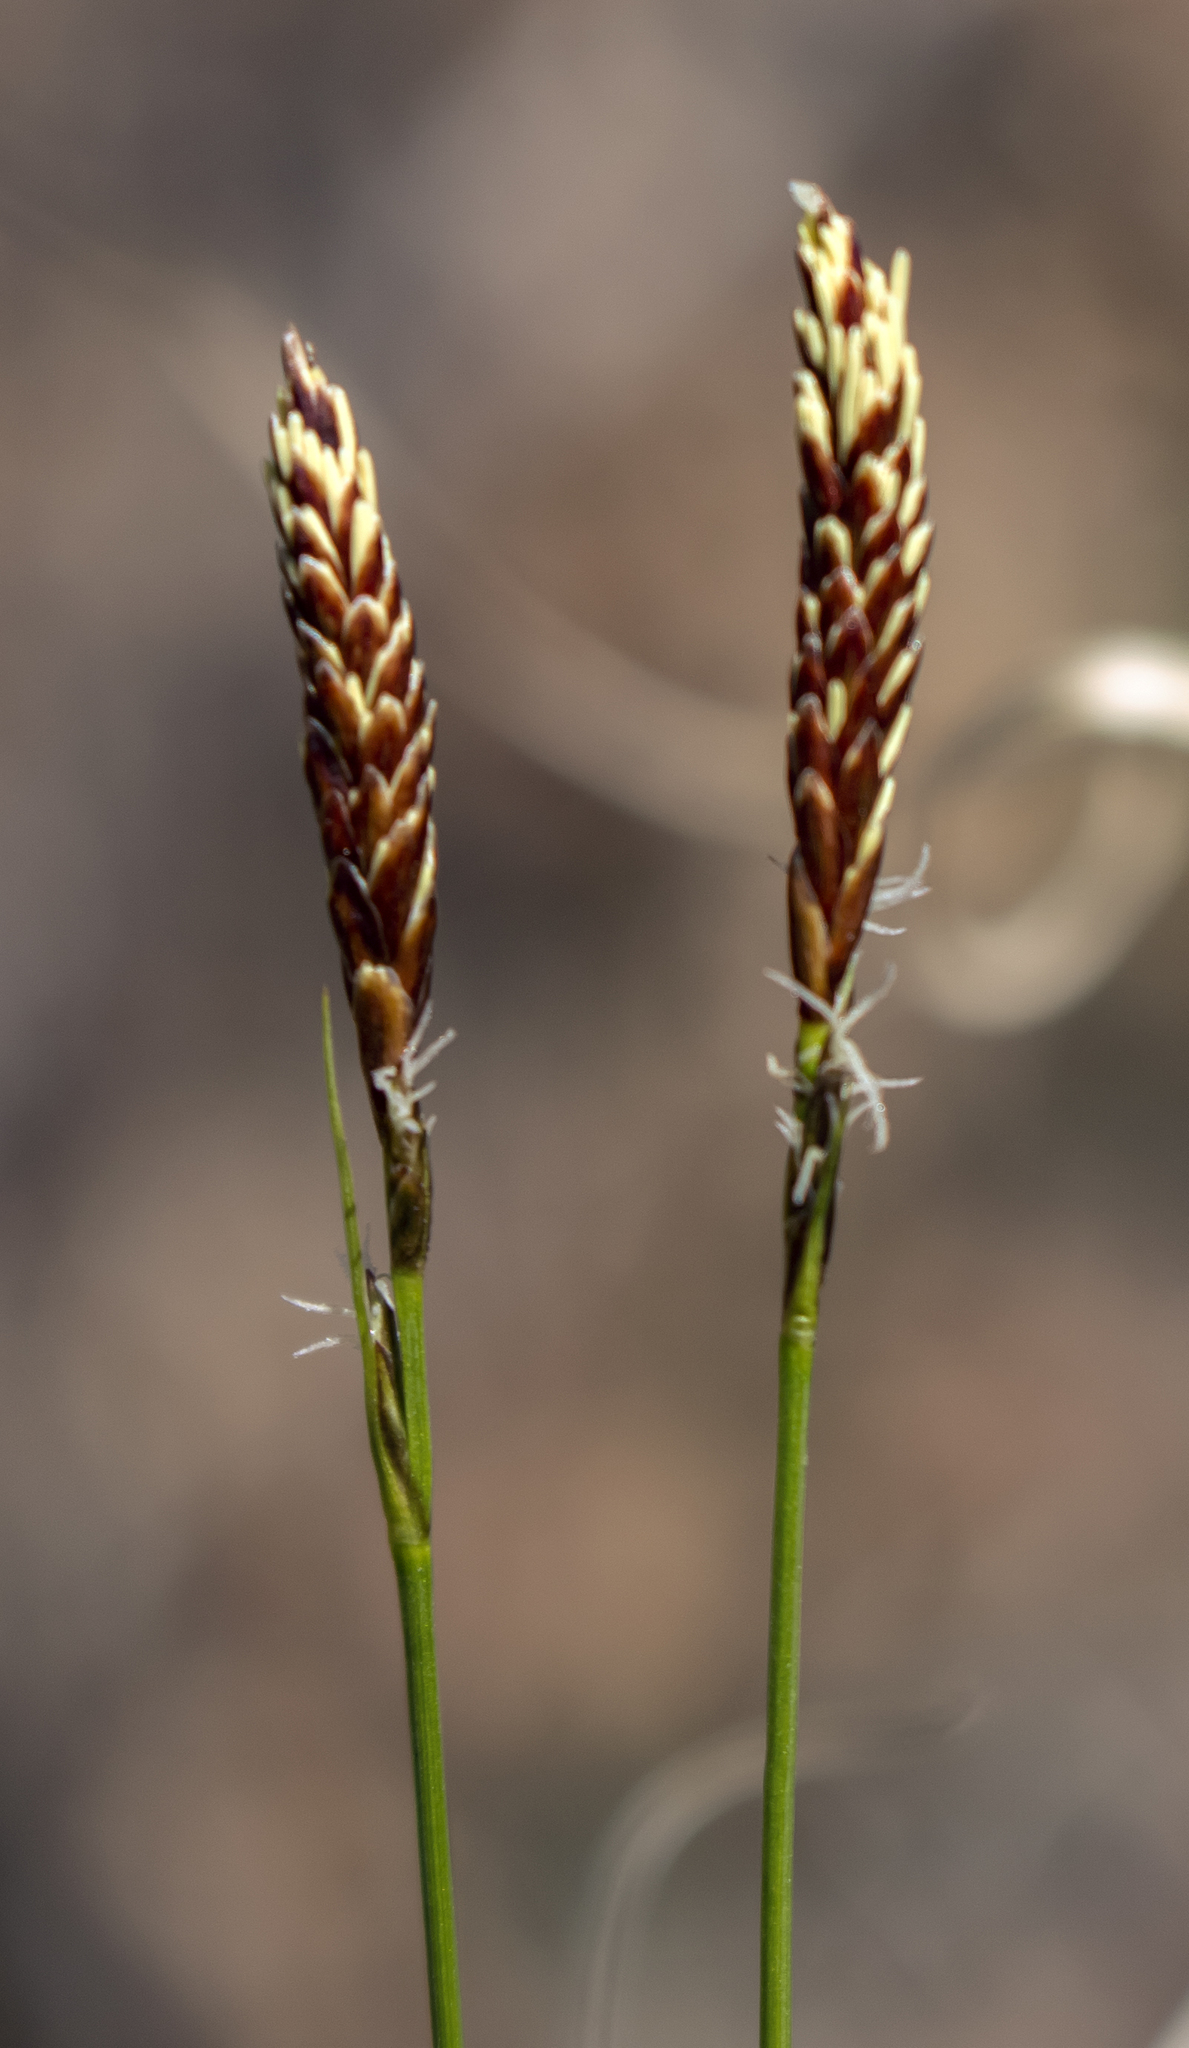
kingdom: Plantae
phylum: Tracheophyta
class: Liliopsida
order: Poales
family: Cyperaceae
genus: Carex
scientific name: Carex pensylvanica
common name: Common oak sedge
